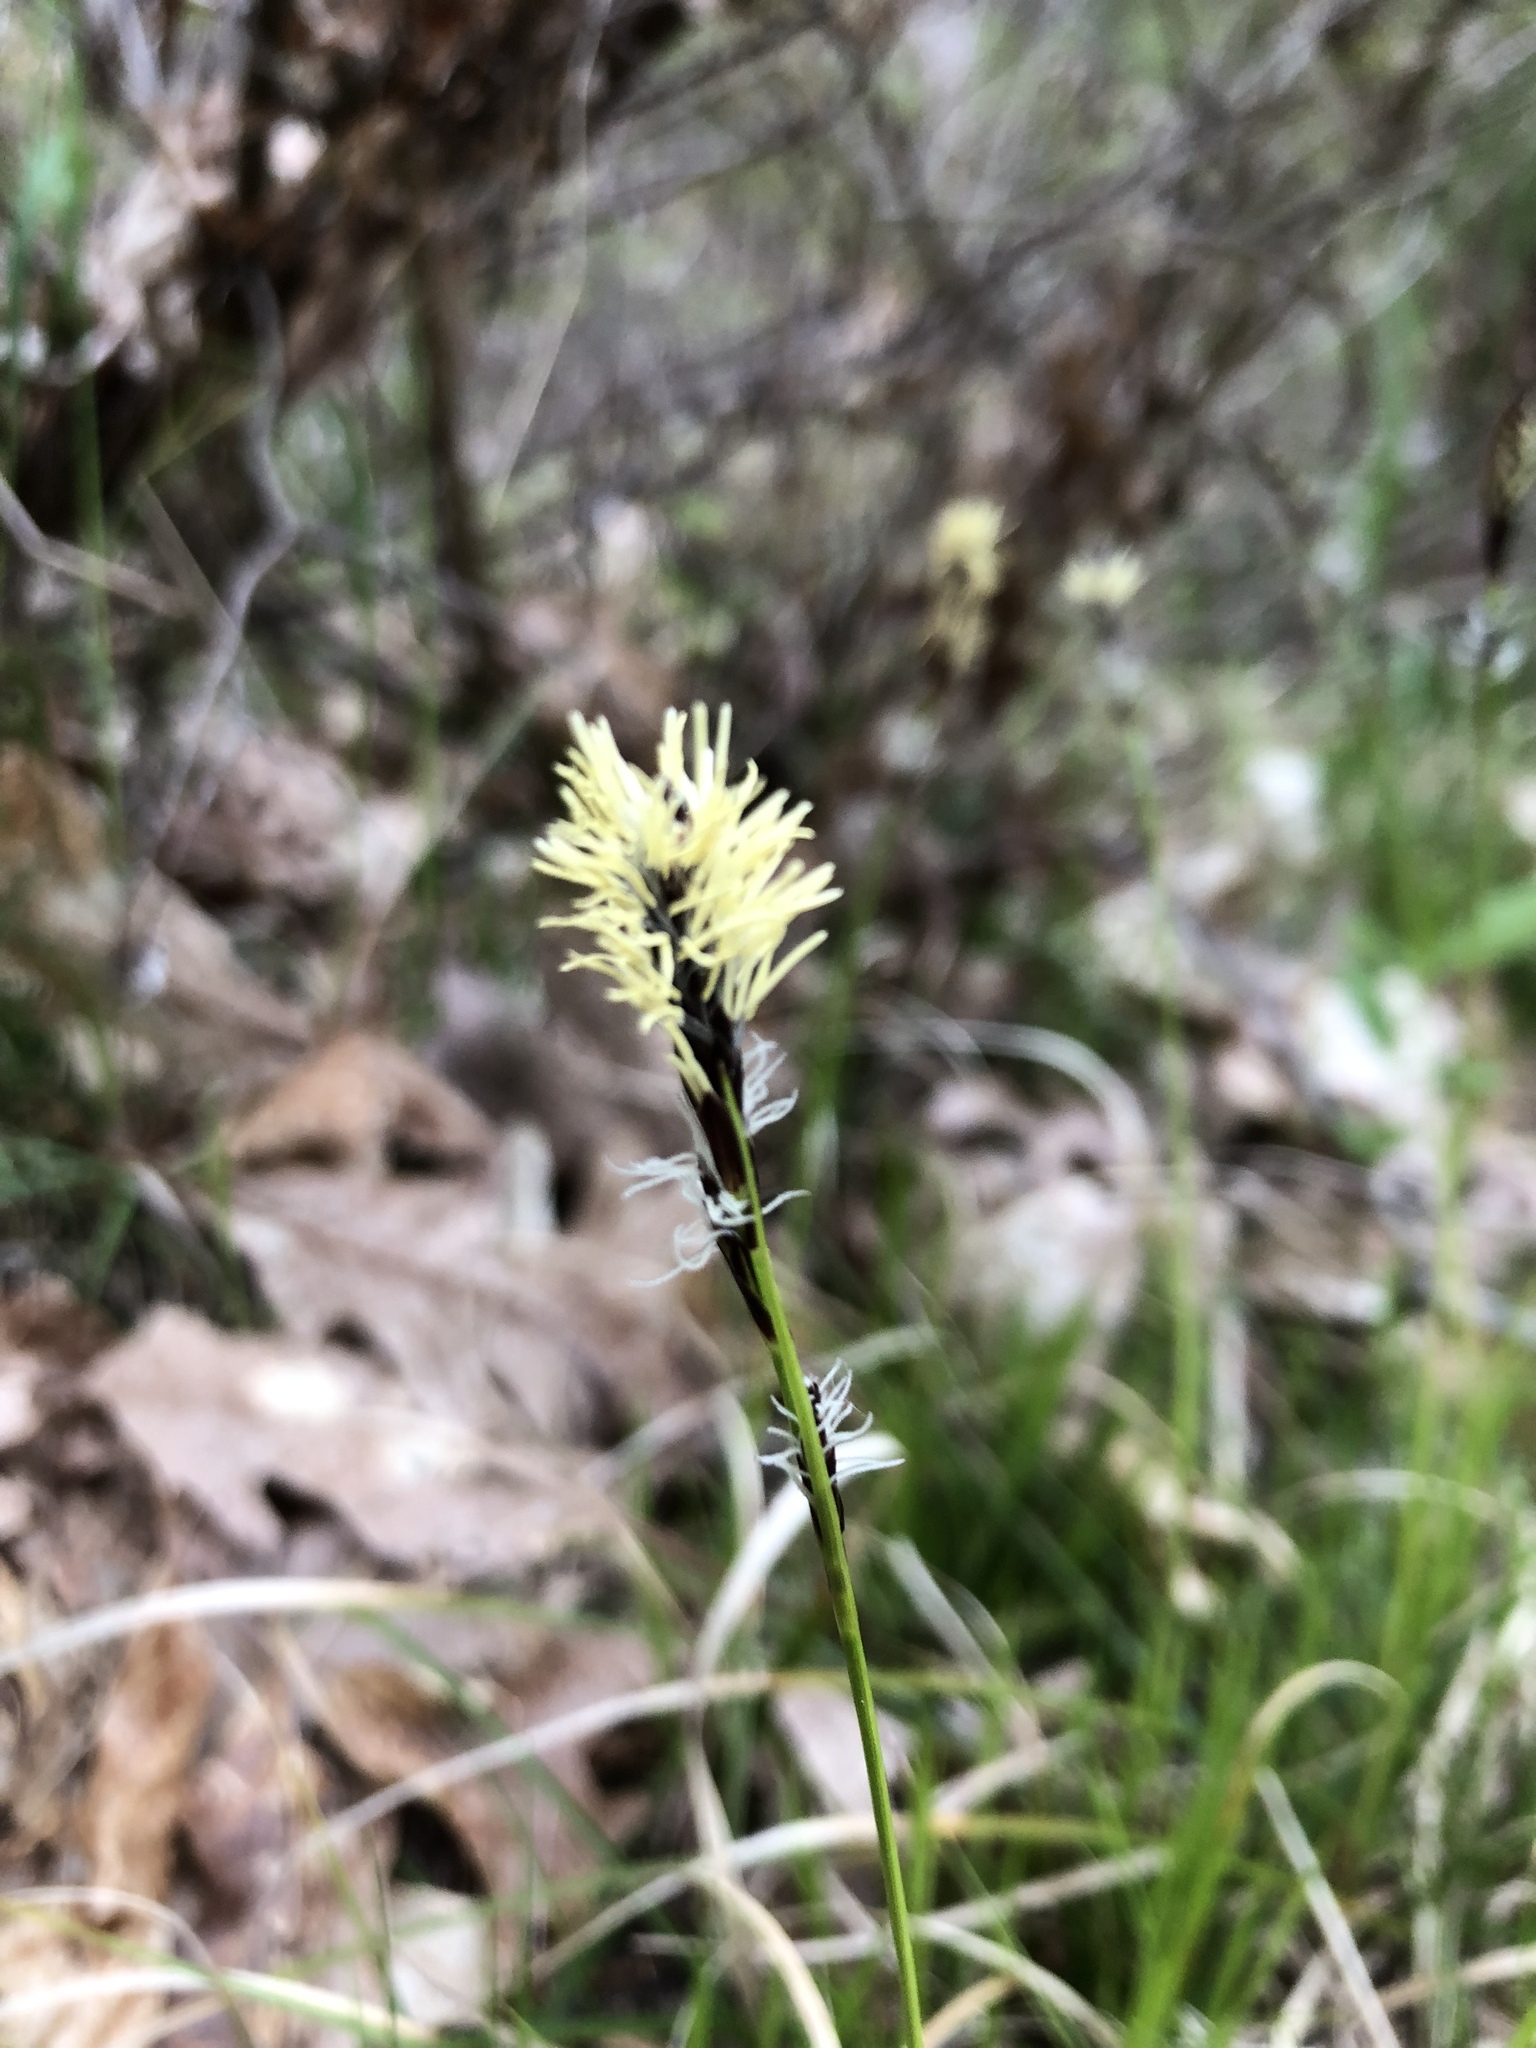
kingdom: Plantae
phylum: Tracheophyta
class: Liliopsida
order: Poales
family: Cyperaceae
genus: Carex
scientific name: Carex pensylvanica
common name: Common oak sedge
